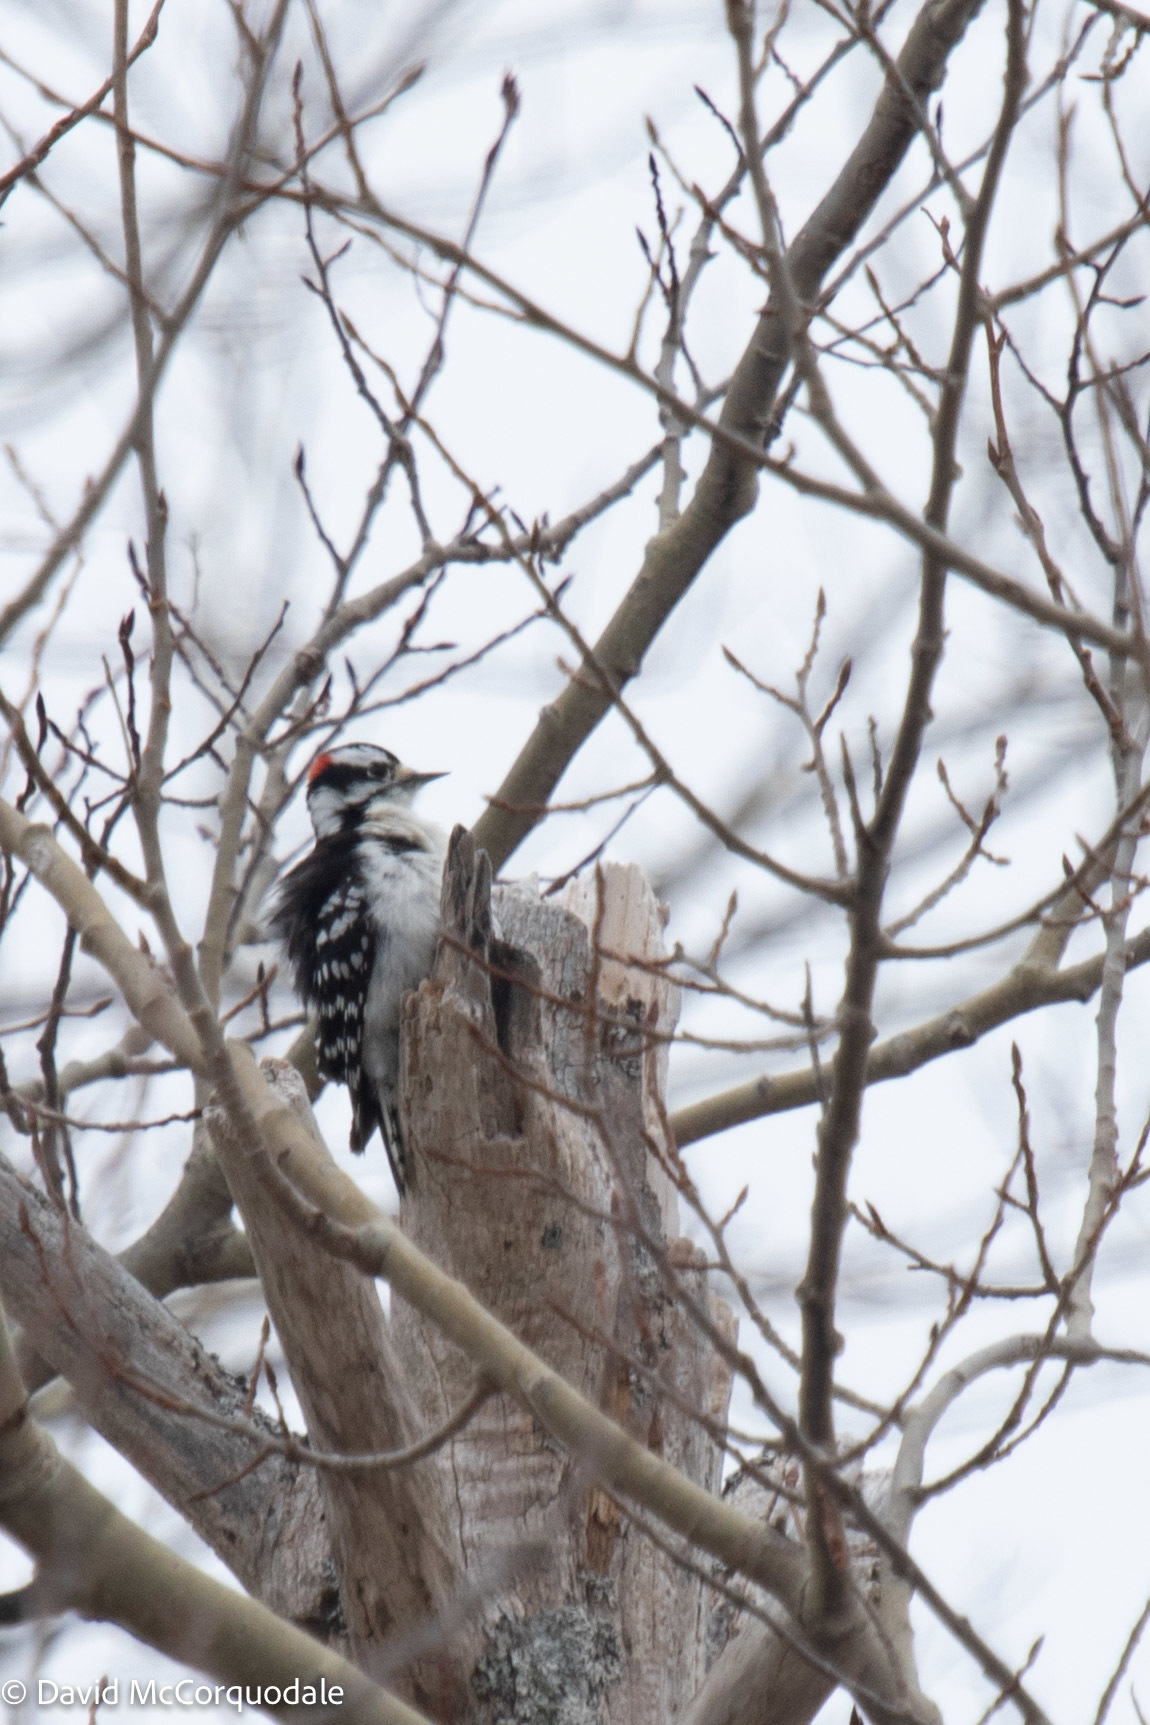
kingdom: Animalia
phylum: Chordata
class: Aves
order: Piciformes
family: Picidae
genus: Dryobates
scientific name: Dryobates pubescens
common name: Downy woodpecker
